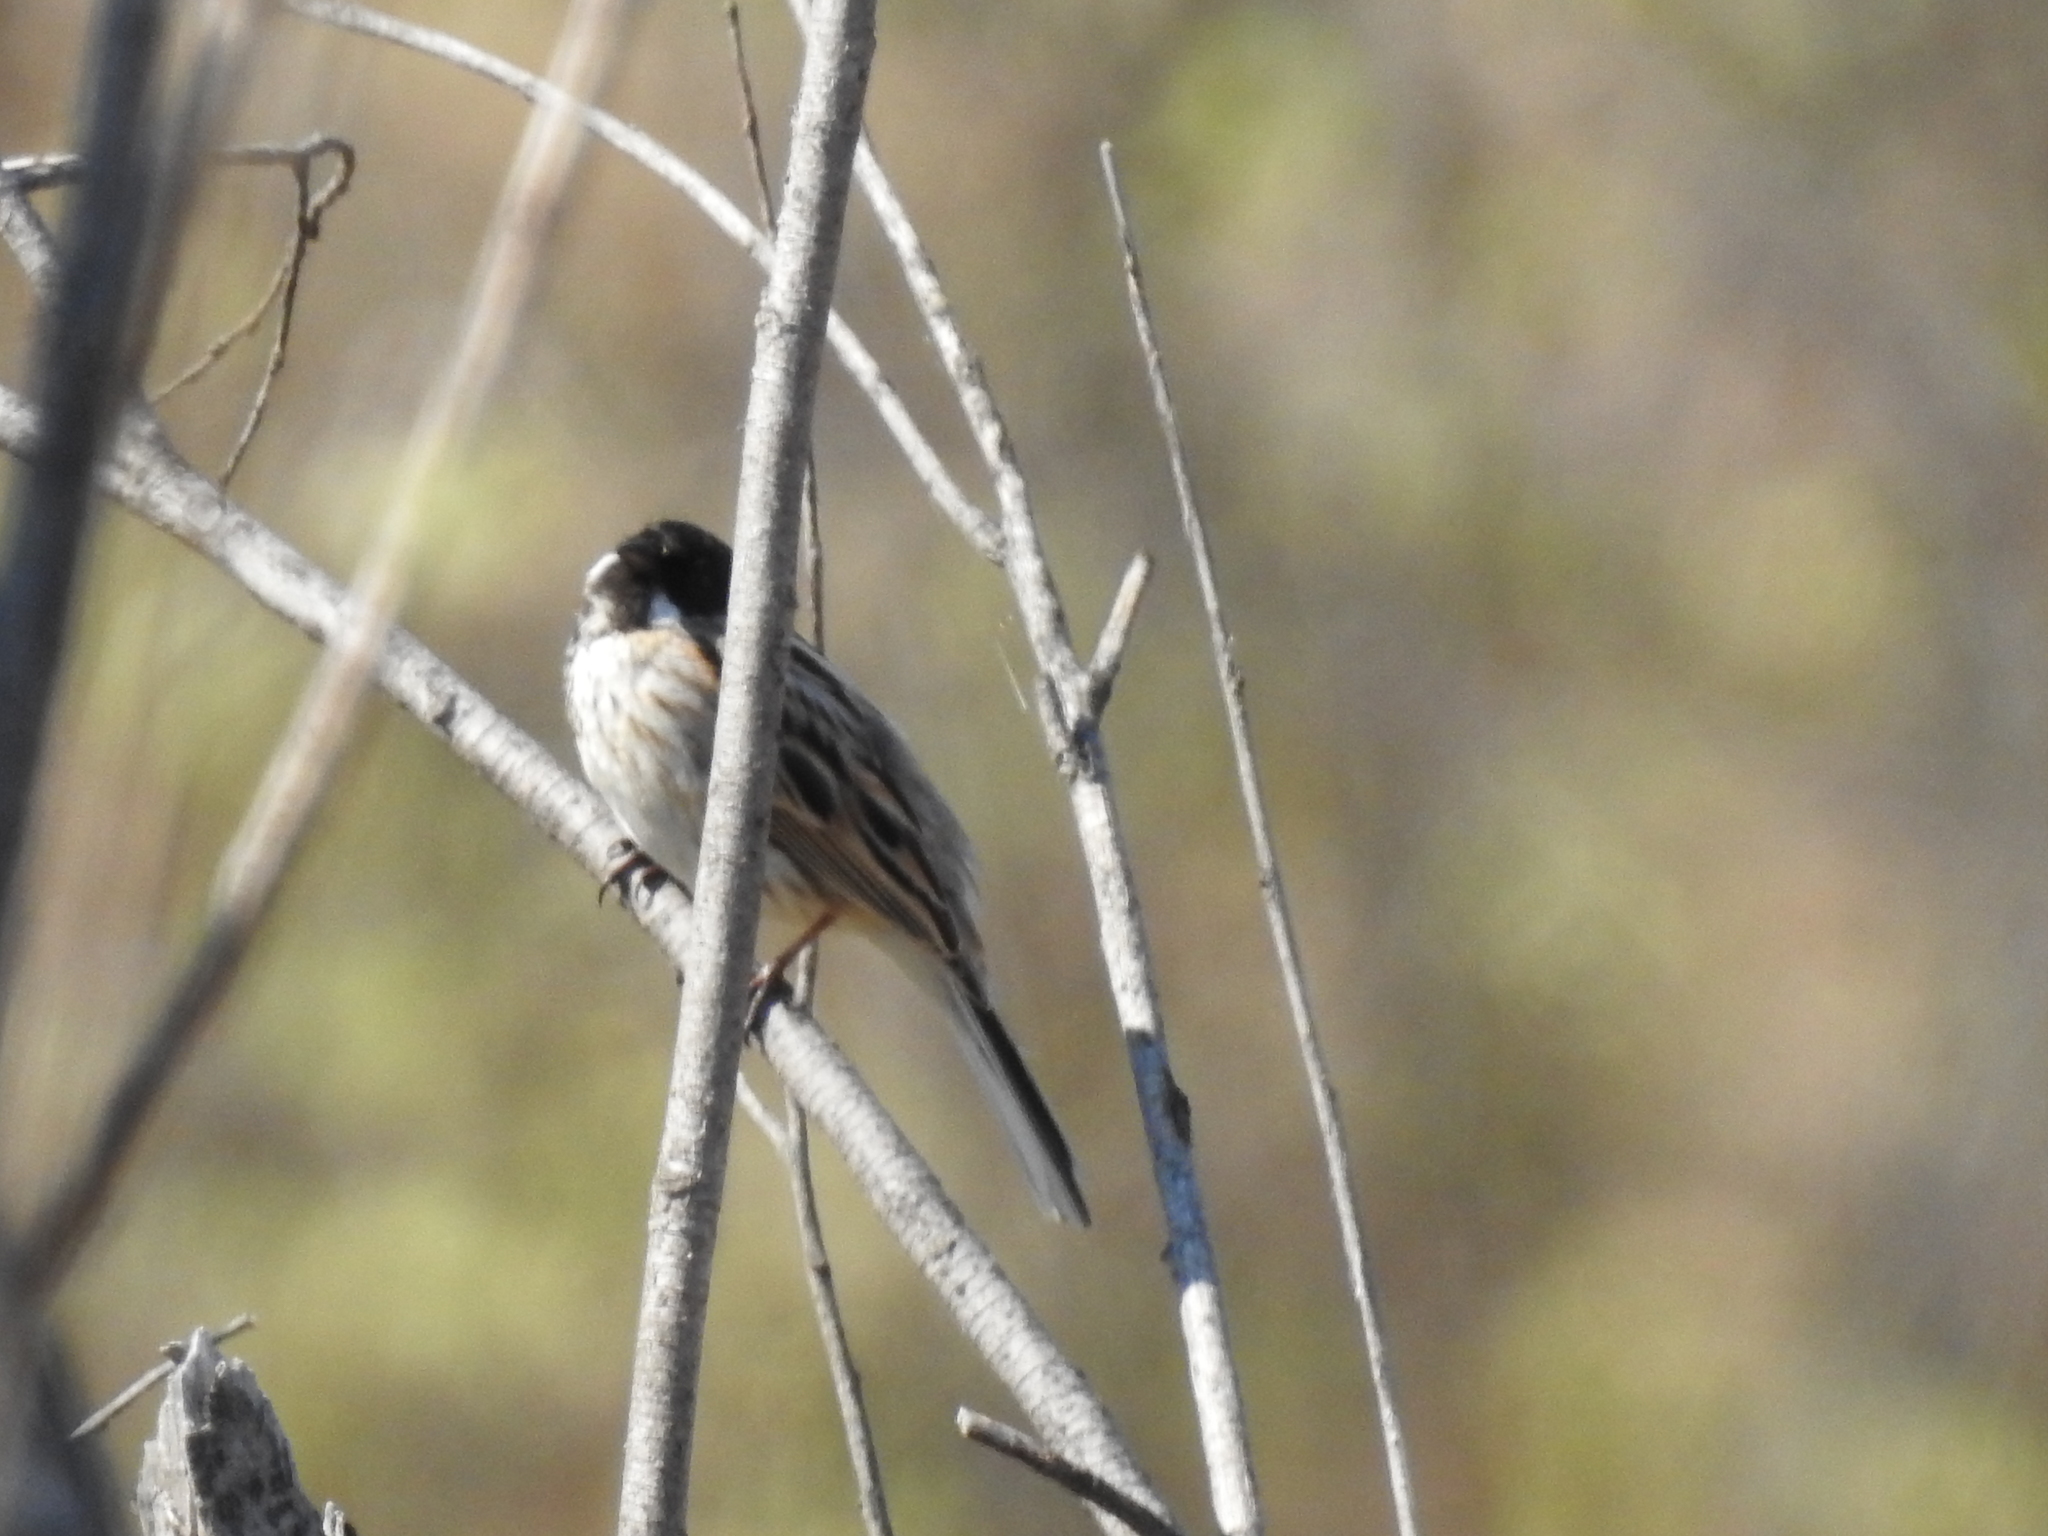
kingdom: Animalia
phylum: Chordata
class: Aves
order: Passeriformes
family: Emberizidae
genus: Emberiza
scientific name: Emberiza schoeniclus
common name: Reed bunting
